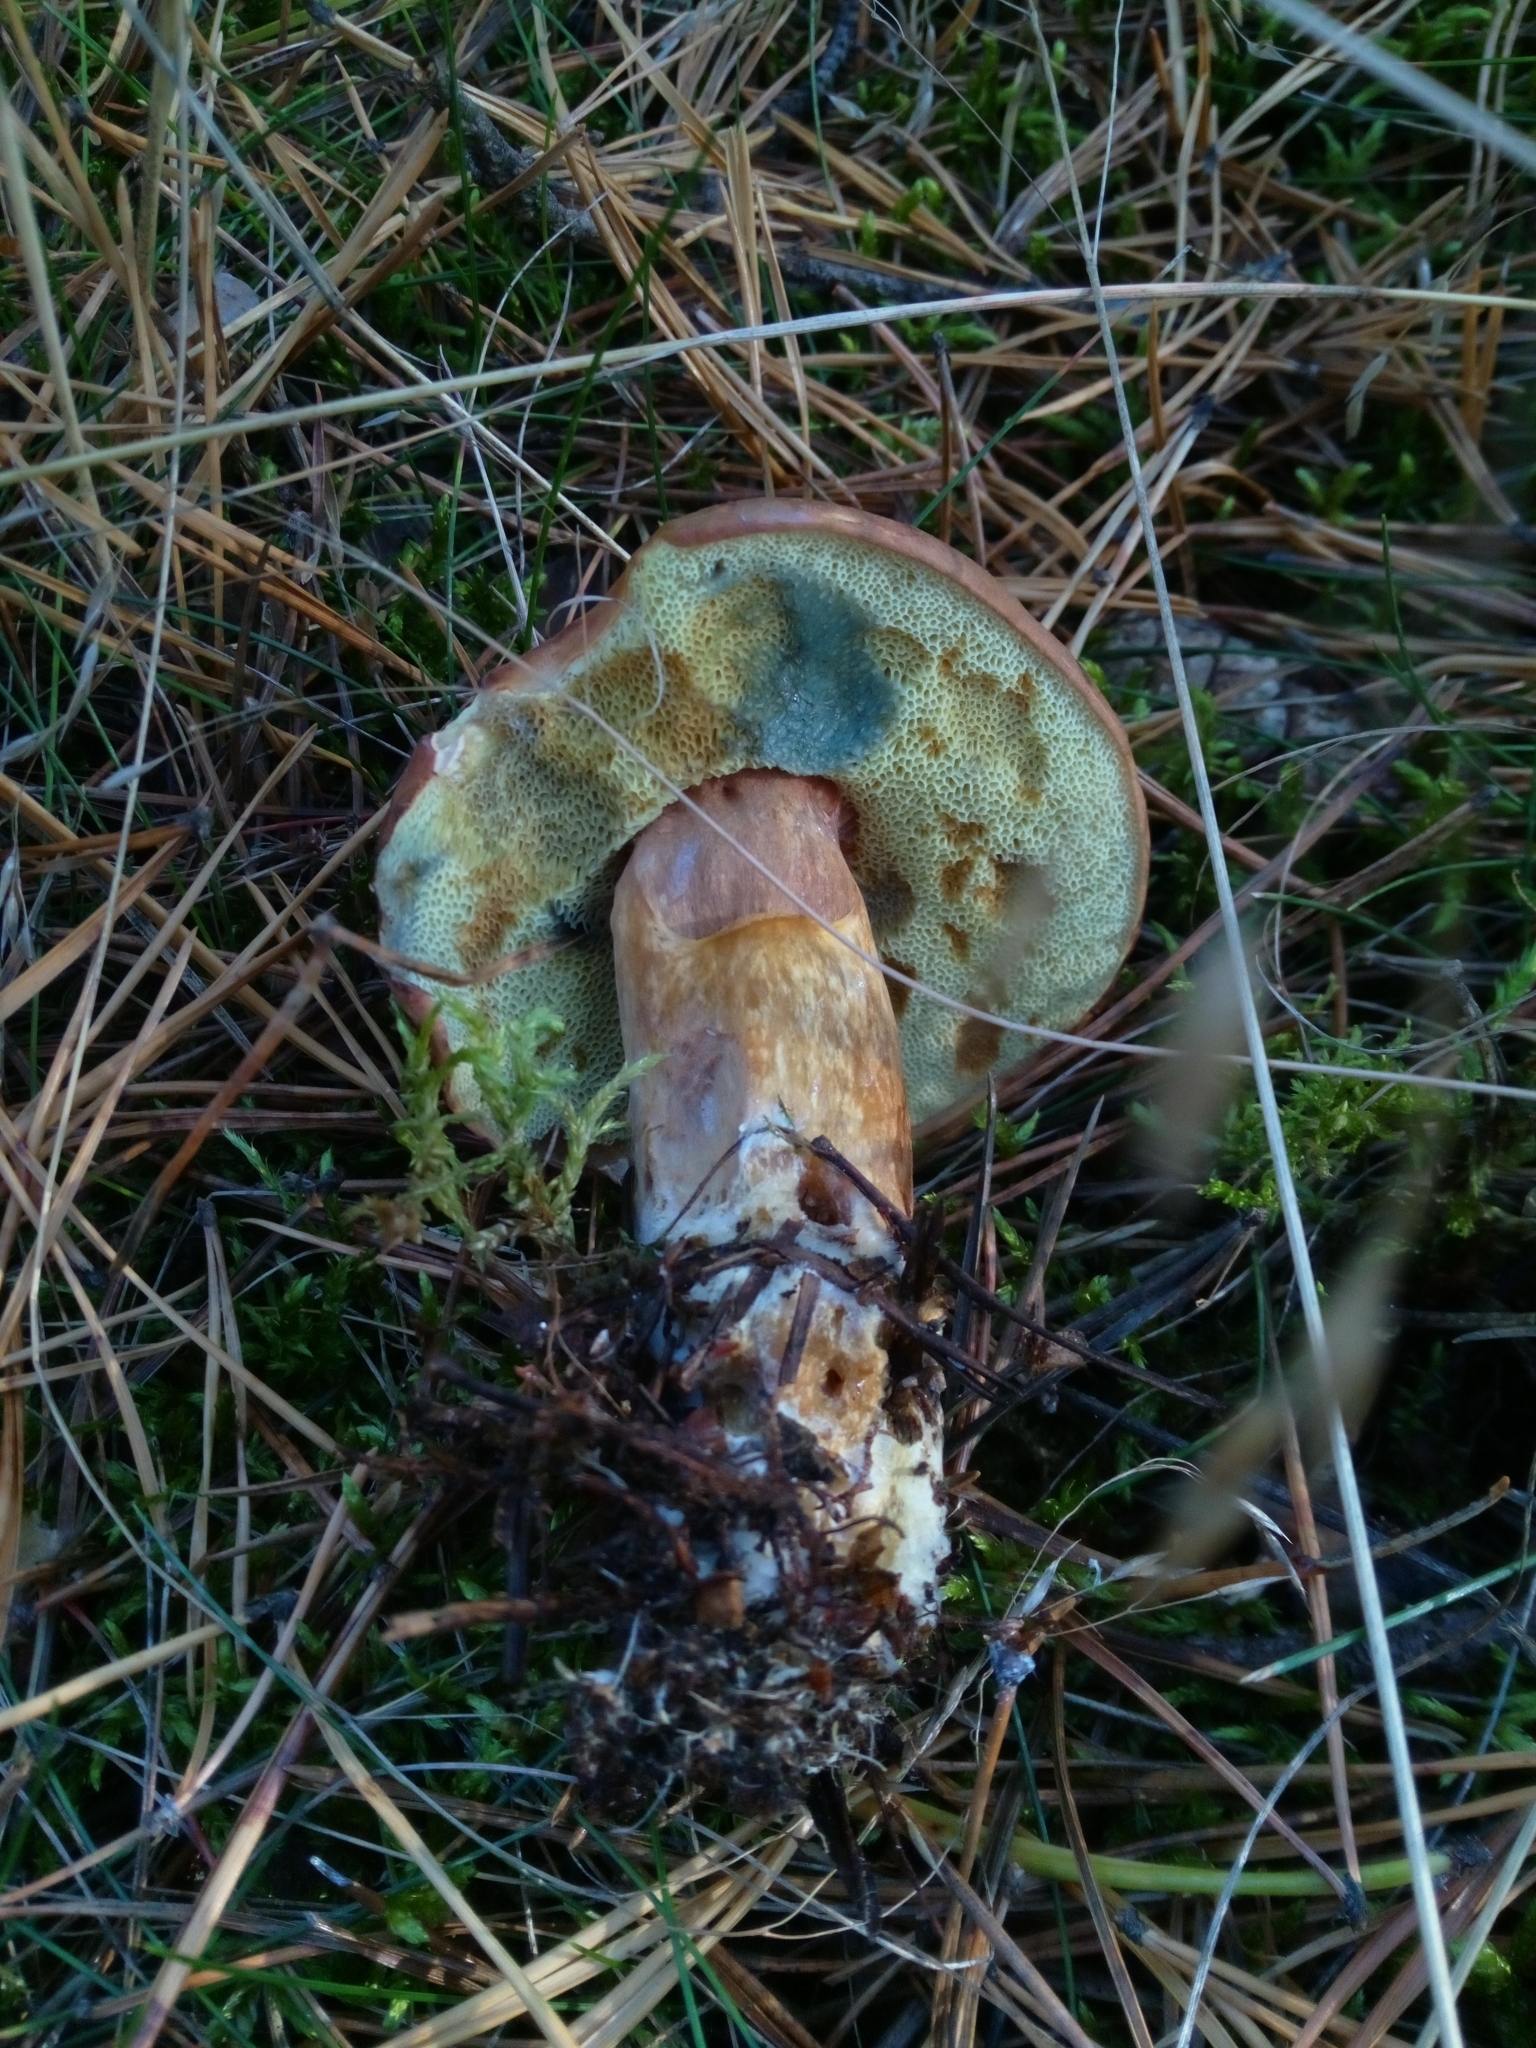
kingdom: Fungi
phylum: Basidiomycota
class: Agaricomycetes
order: Boletales
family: Boletaceae
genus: Imleria
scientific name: Imleria badia
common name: Bay bolete
